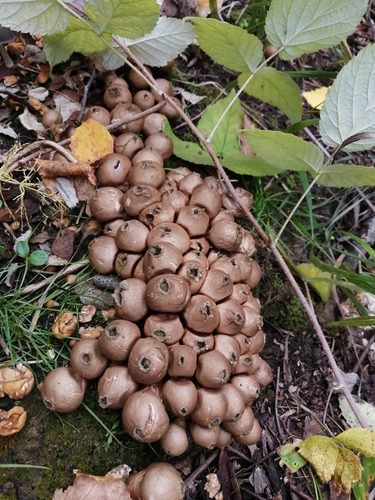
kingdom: Fungi
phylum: Basidiomycota
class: Agaricomycetes
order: Agaricales
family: Lycoperdaceae
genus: Apioperdon
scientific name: Apioperdon pyriforme
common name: Pear-shaped puffball
